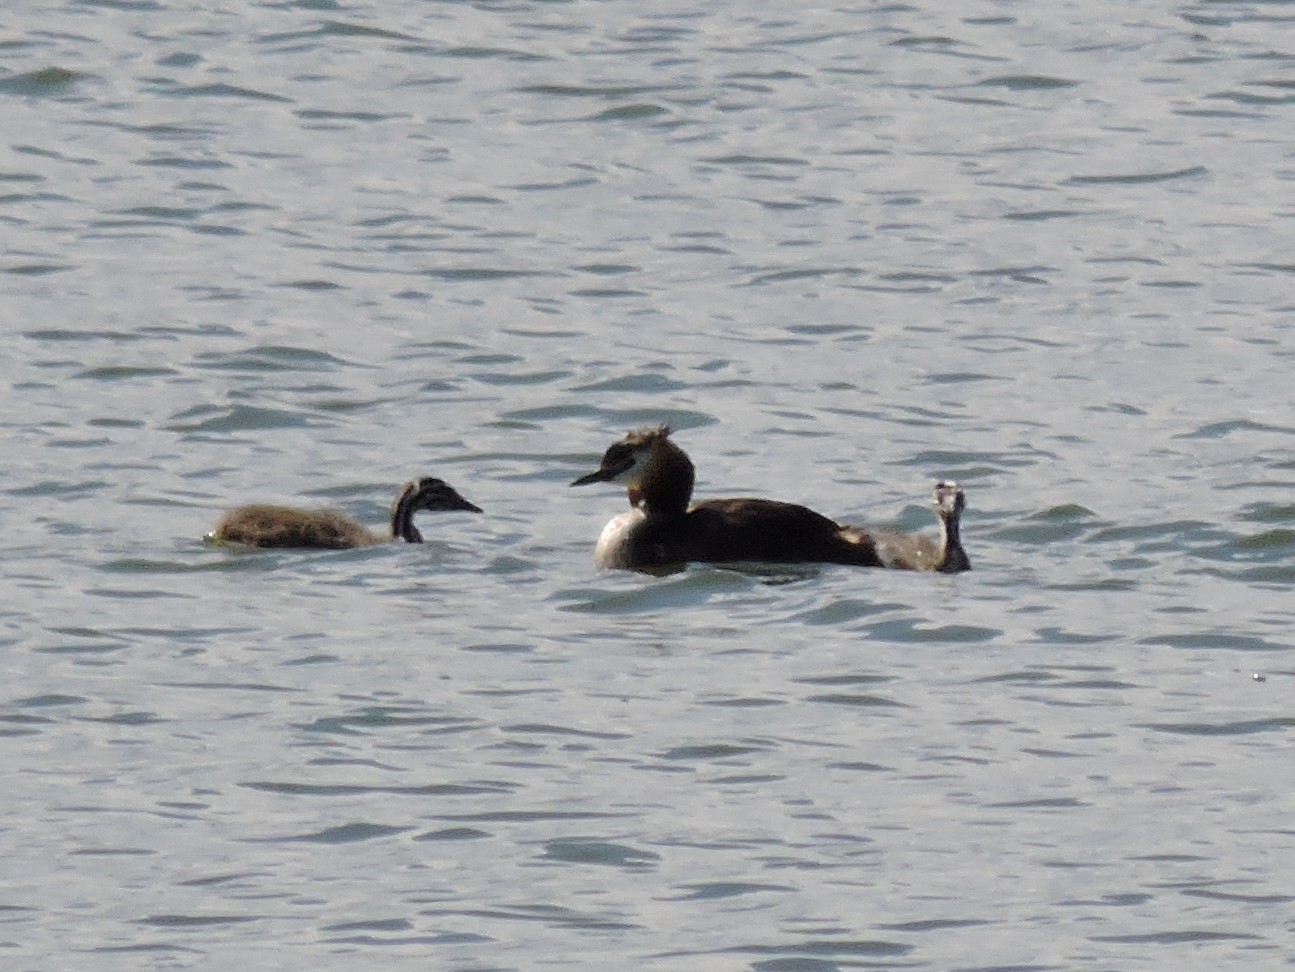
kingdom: Animalia
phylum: Chordata
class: Aves
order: Podicipediformes
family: Podicipedidae
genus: Podiceps
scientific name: Podiceps cristatus
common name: Great crested grebe
